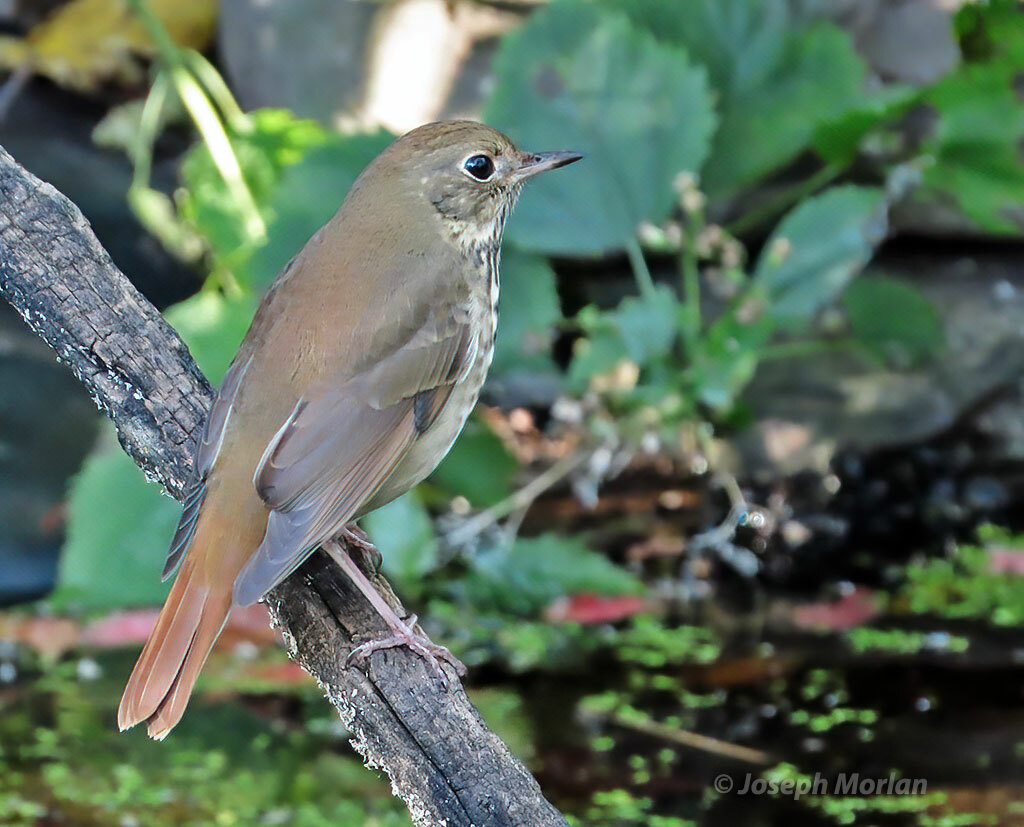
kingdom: Animalia
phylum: Chordata
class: Aves
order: Passeriformes
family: Turdidae
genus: Catharus
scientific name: Catharus guttatus
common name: Hermit thrush
